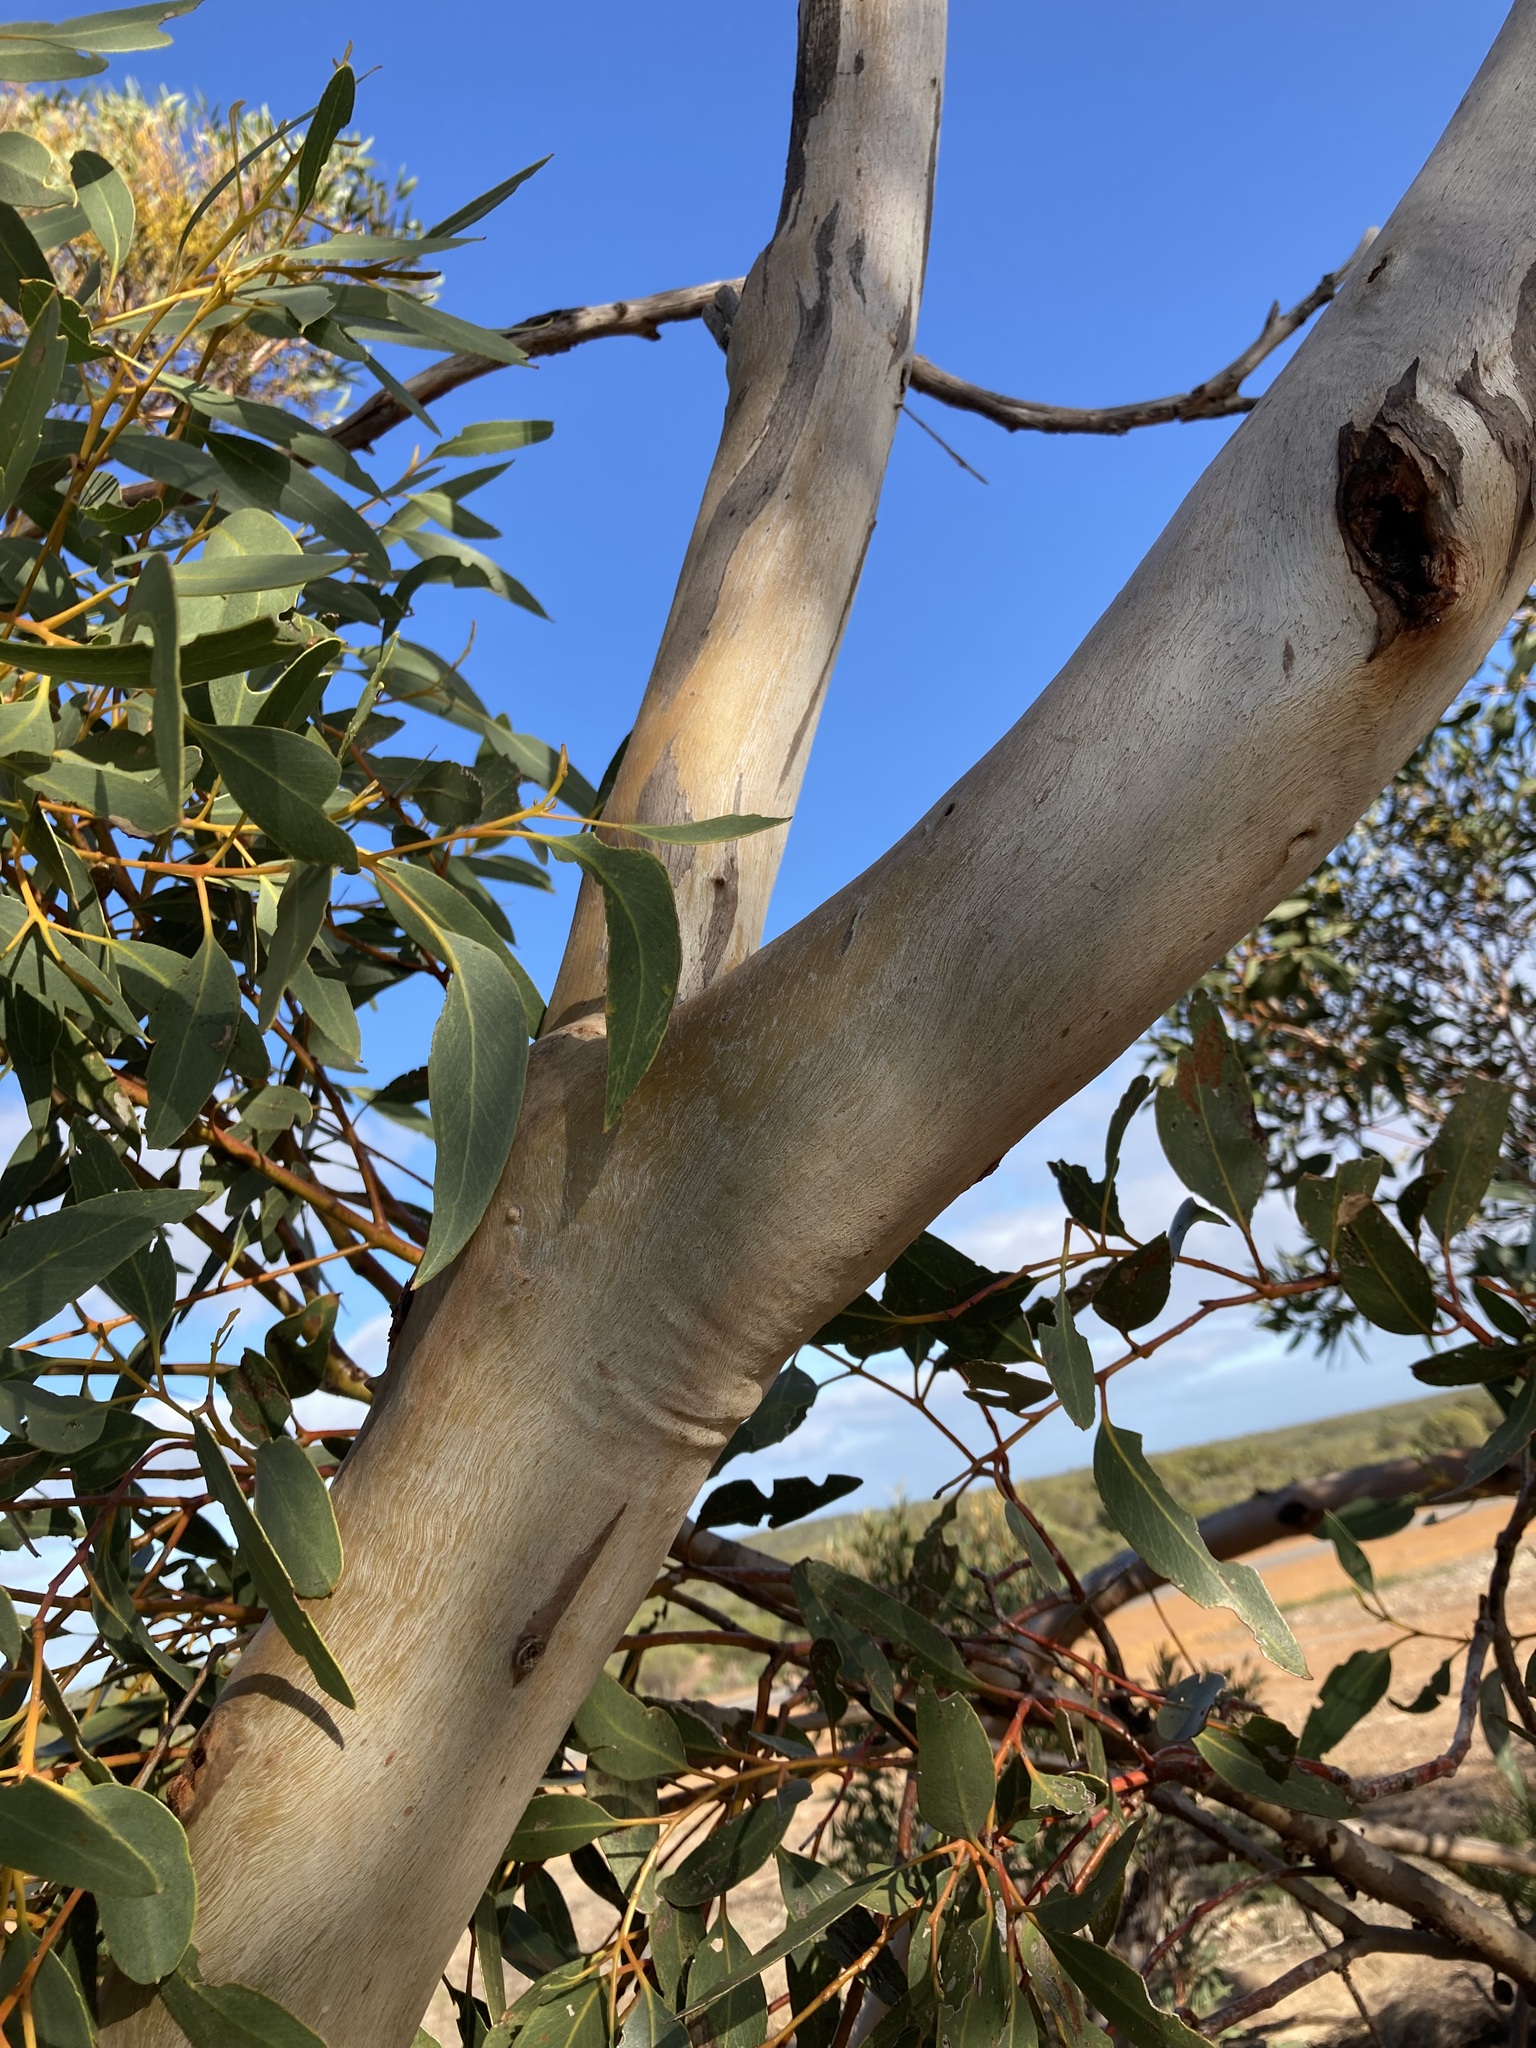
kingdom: Plantae
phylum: Tracheophyta
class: Magnoliopsida
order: Myrtales
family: Myrtaceae
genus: Eucalyptus
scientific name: Eucalyptus subangusta
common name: Ember mallee
